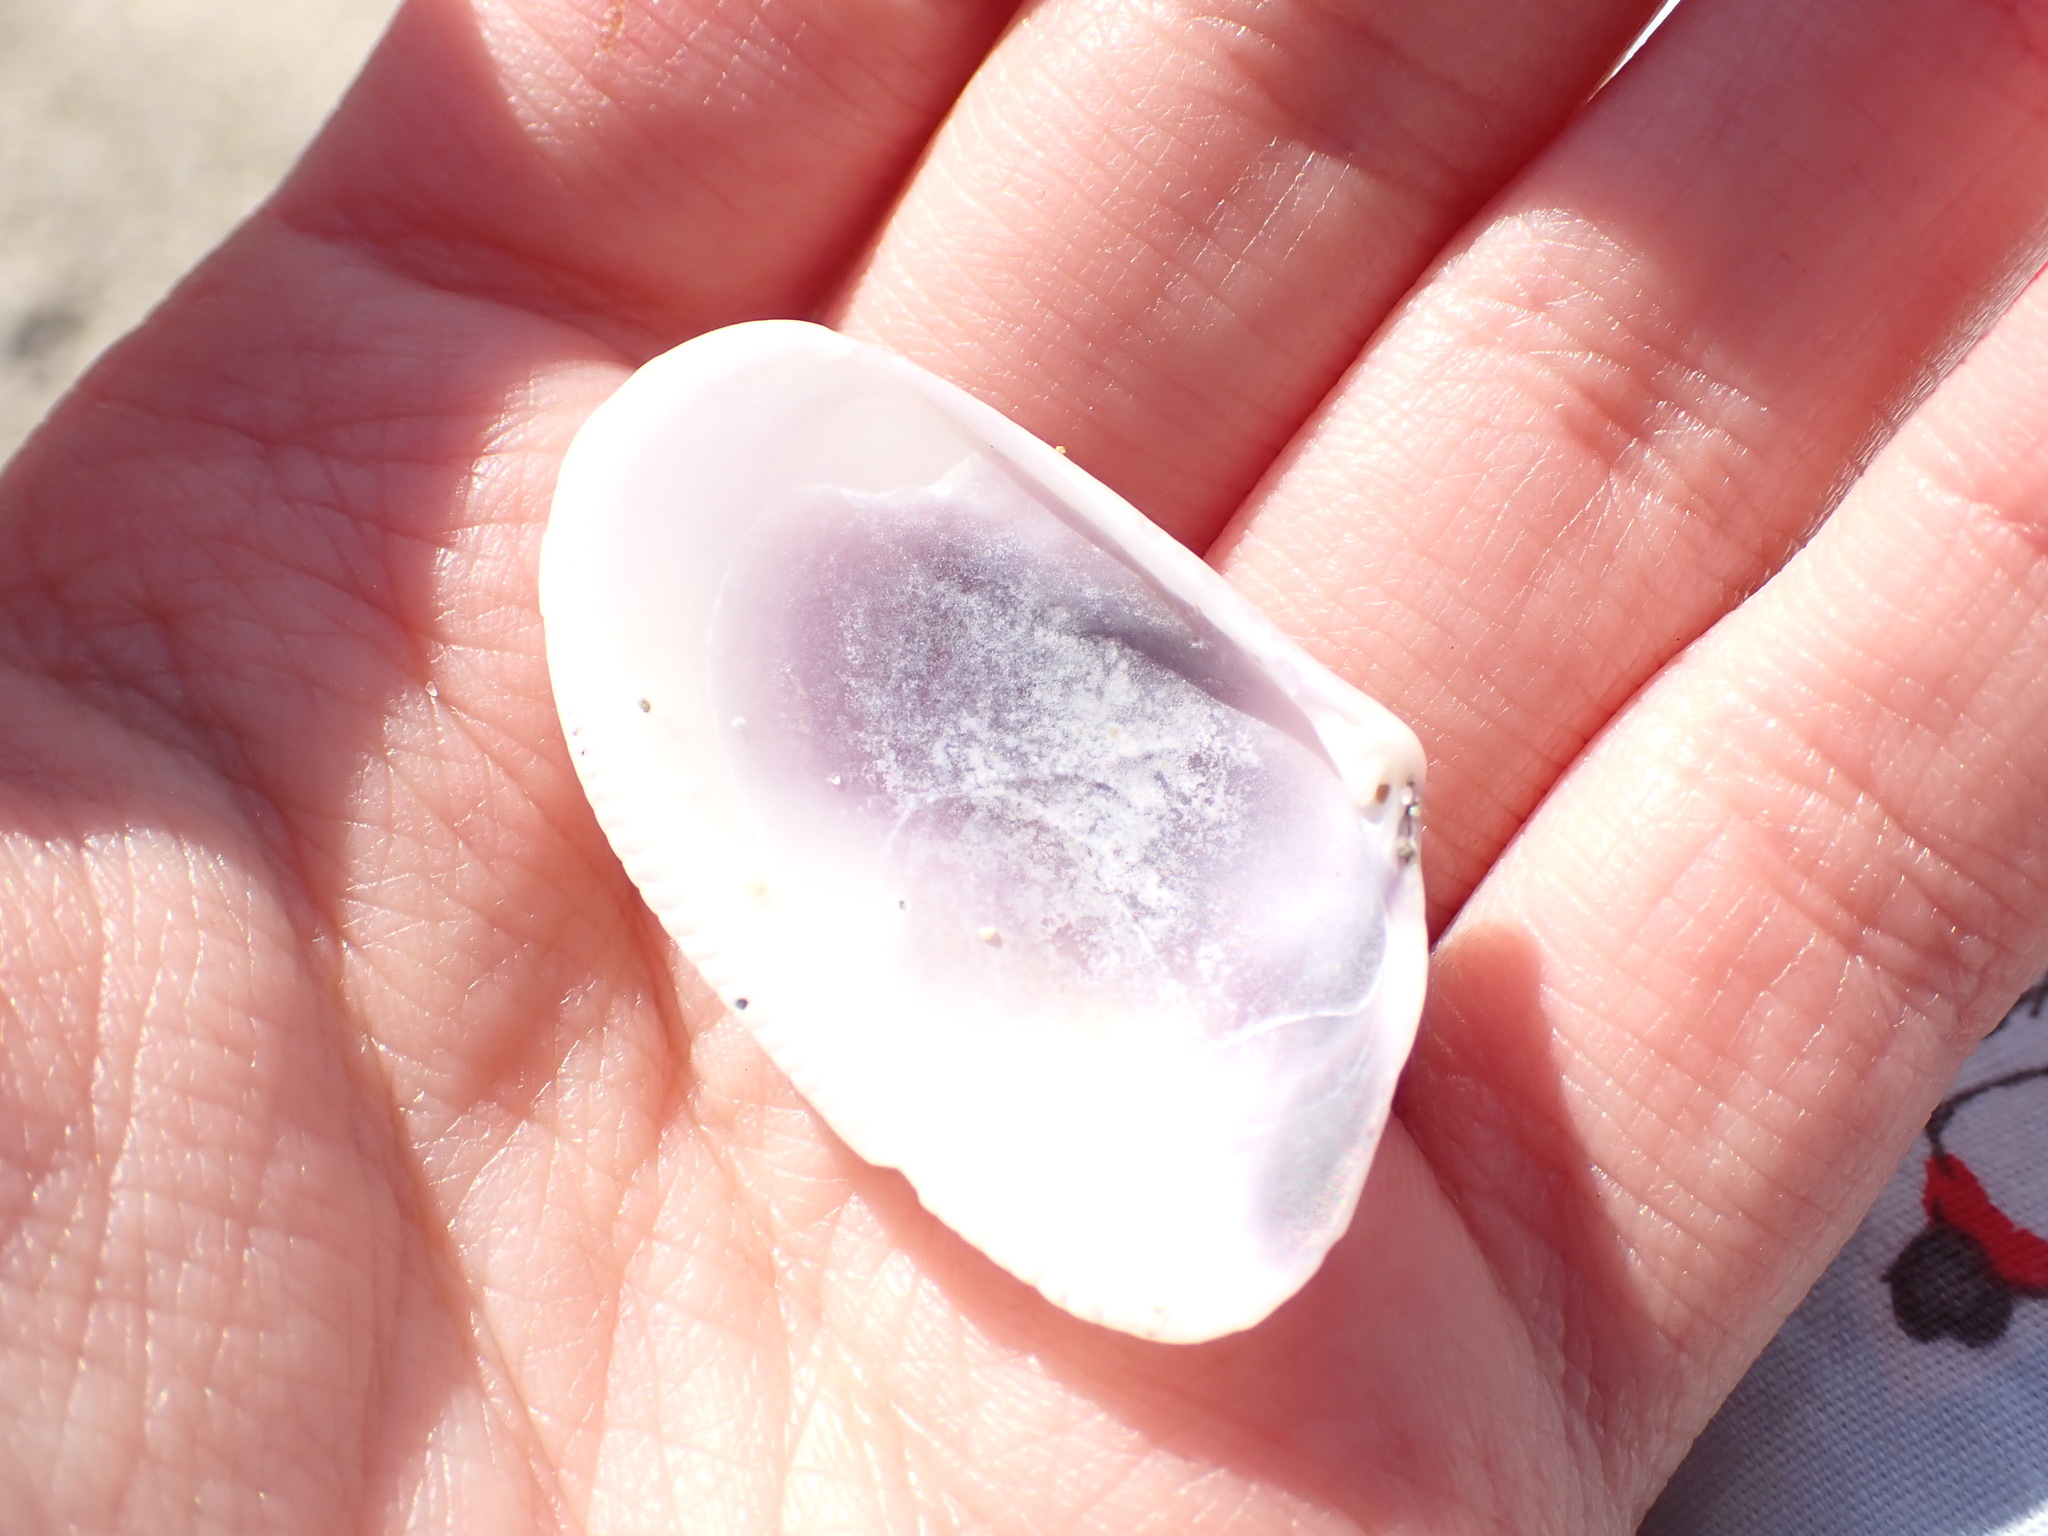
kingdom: Animalia
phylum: Mollusca
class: Bivalvia
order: Cardiida
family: Donacidae
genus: Donax
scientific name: Donax trunculus
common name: Truncate donax
